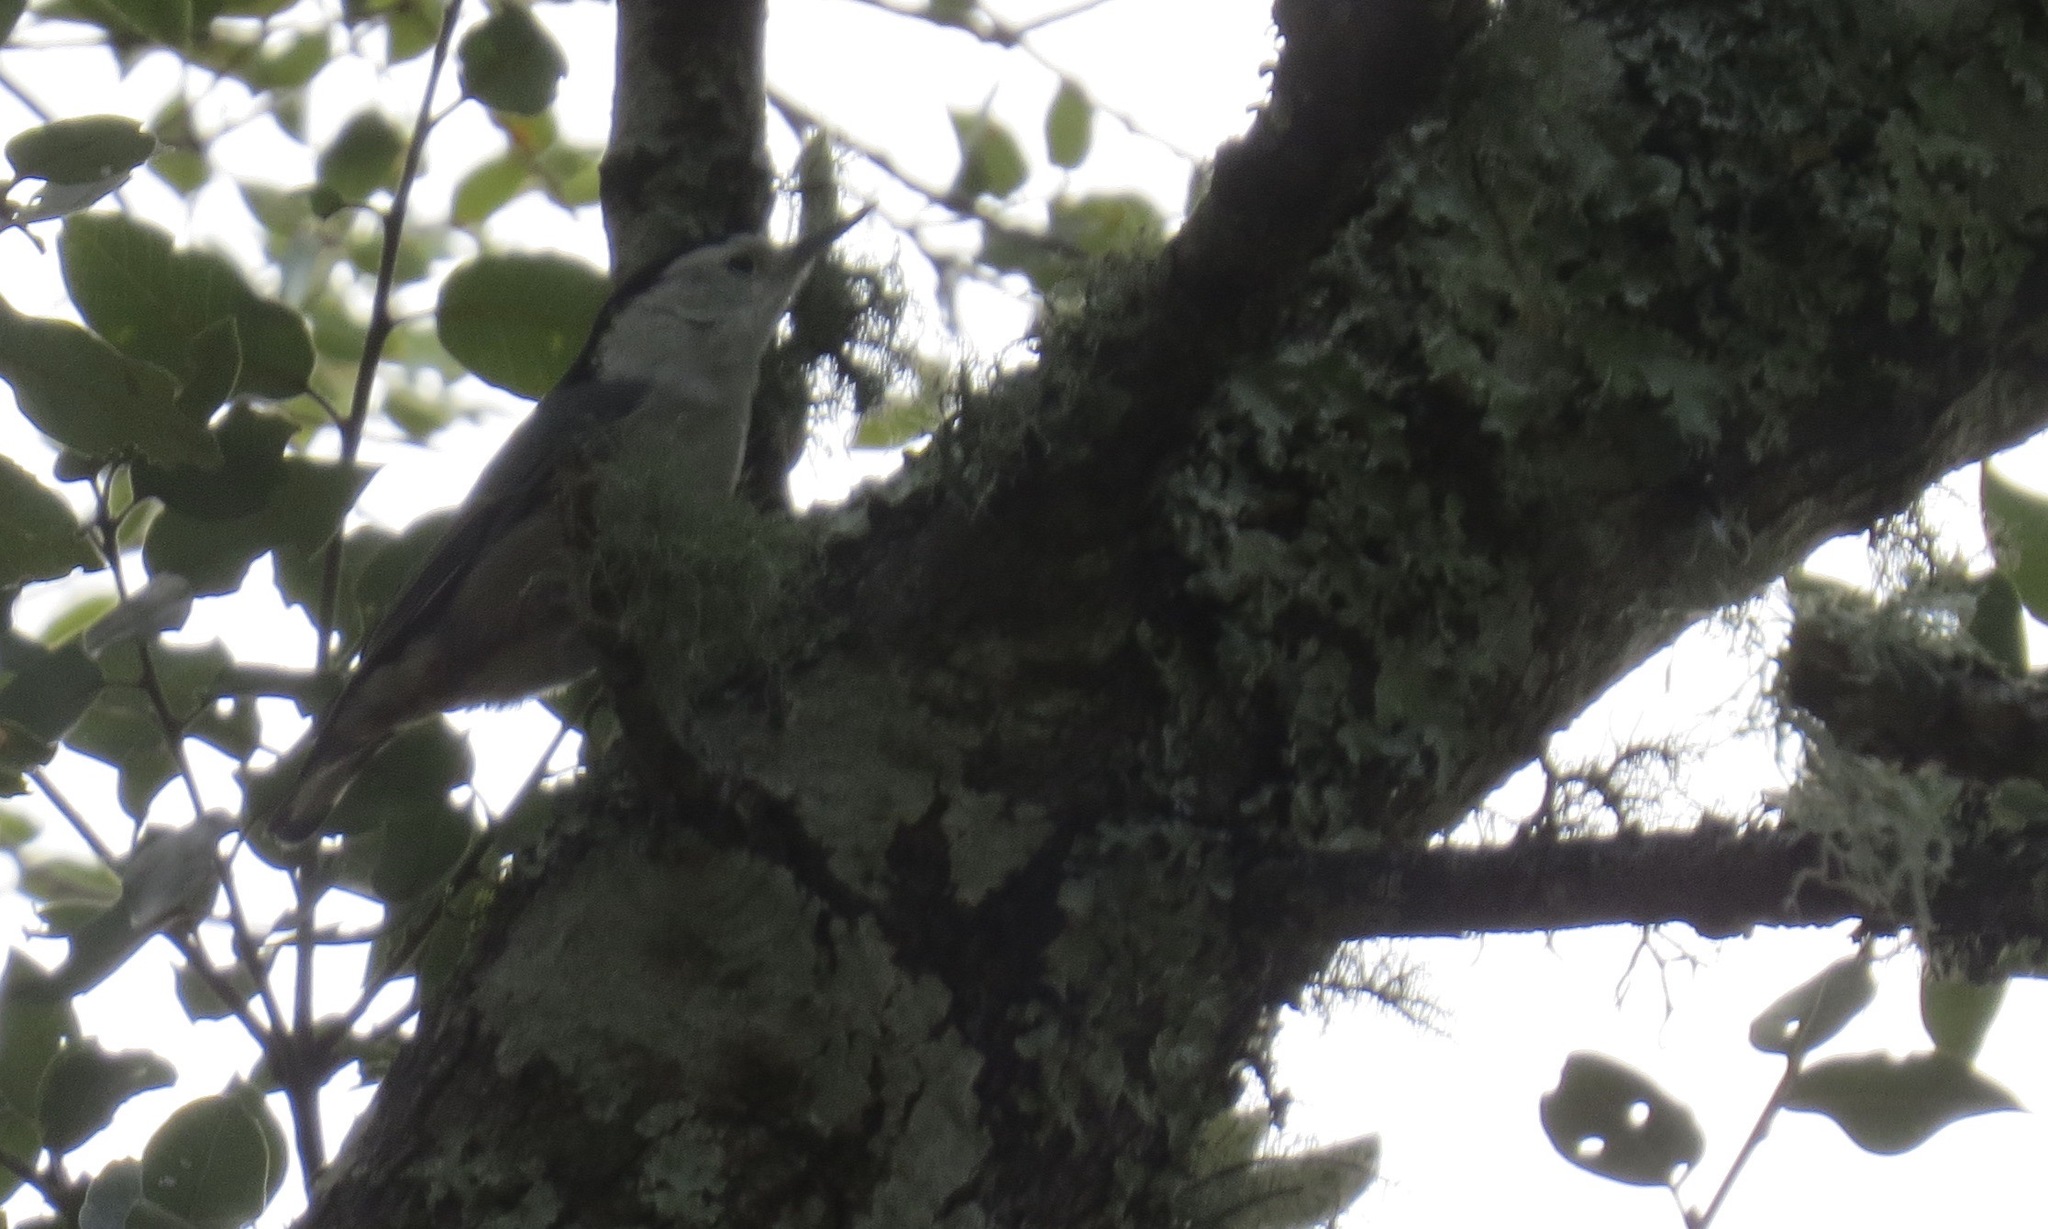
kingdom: Animalia
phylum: Chordata
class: Aves
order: Passeriformes
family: Sittidae
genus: Sitta
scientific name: Sitta carolinensis
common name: White-breasted nuthatch
